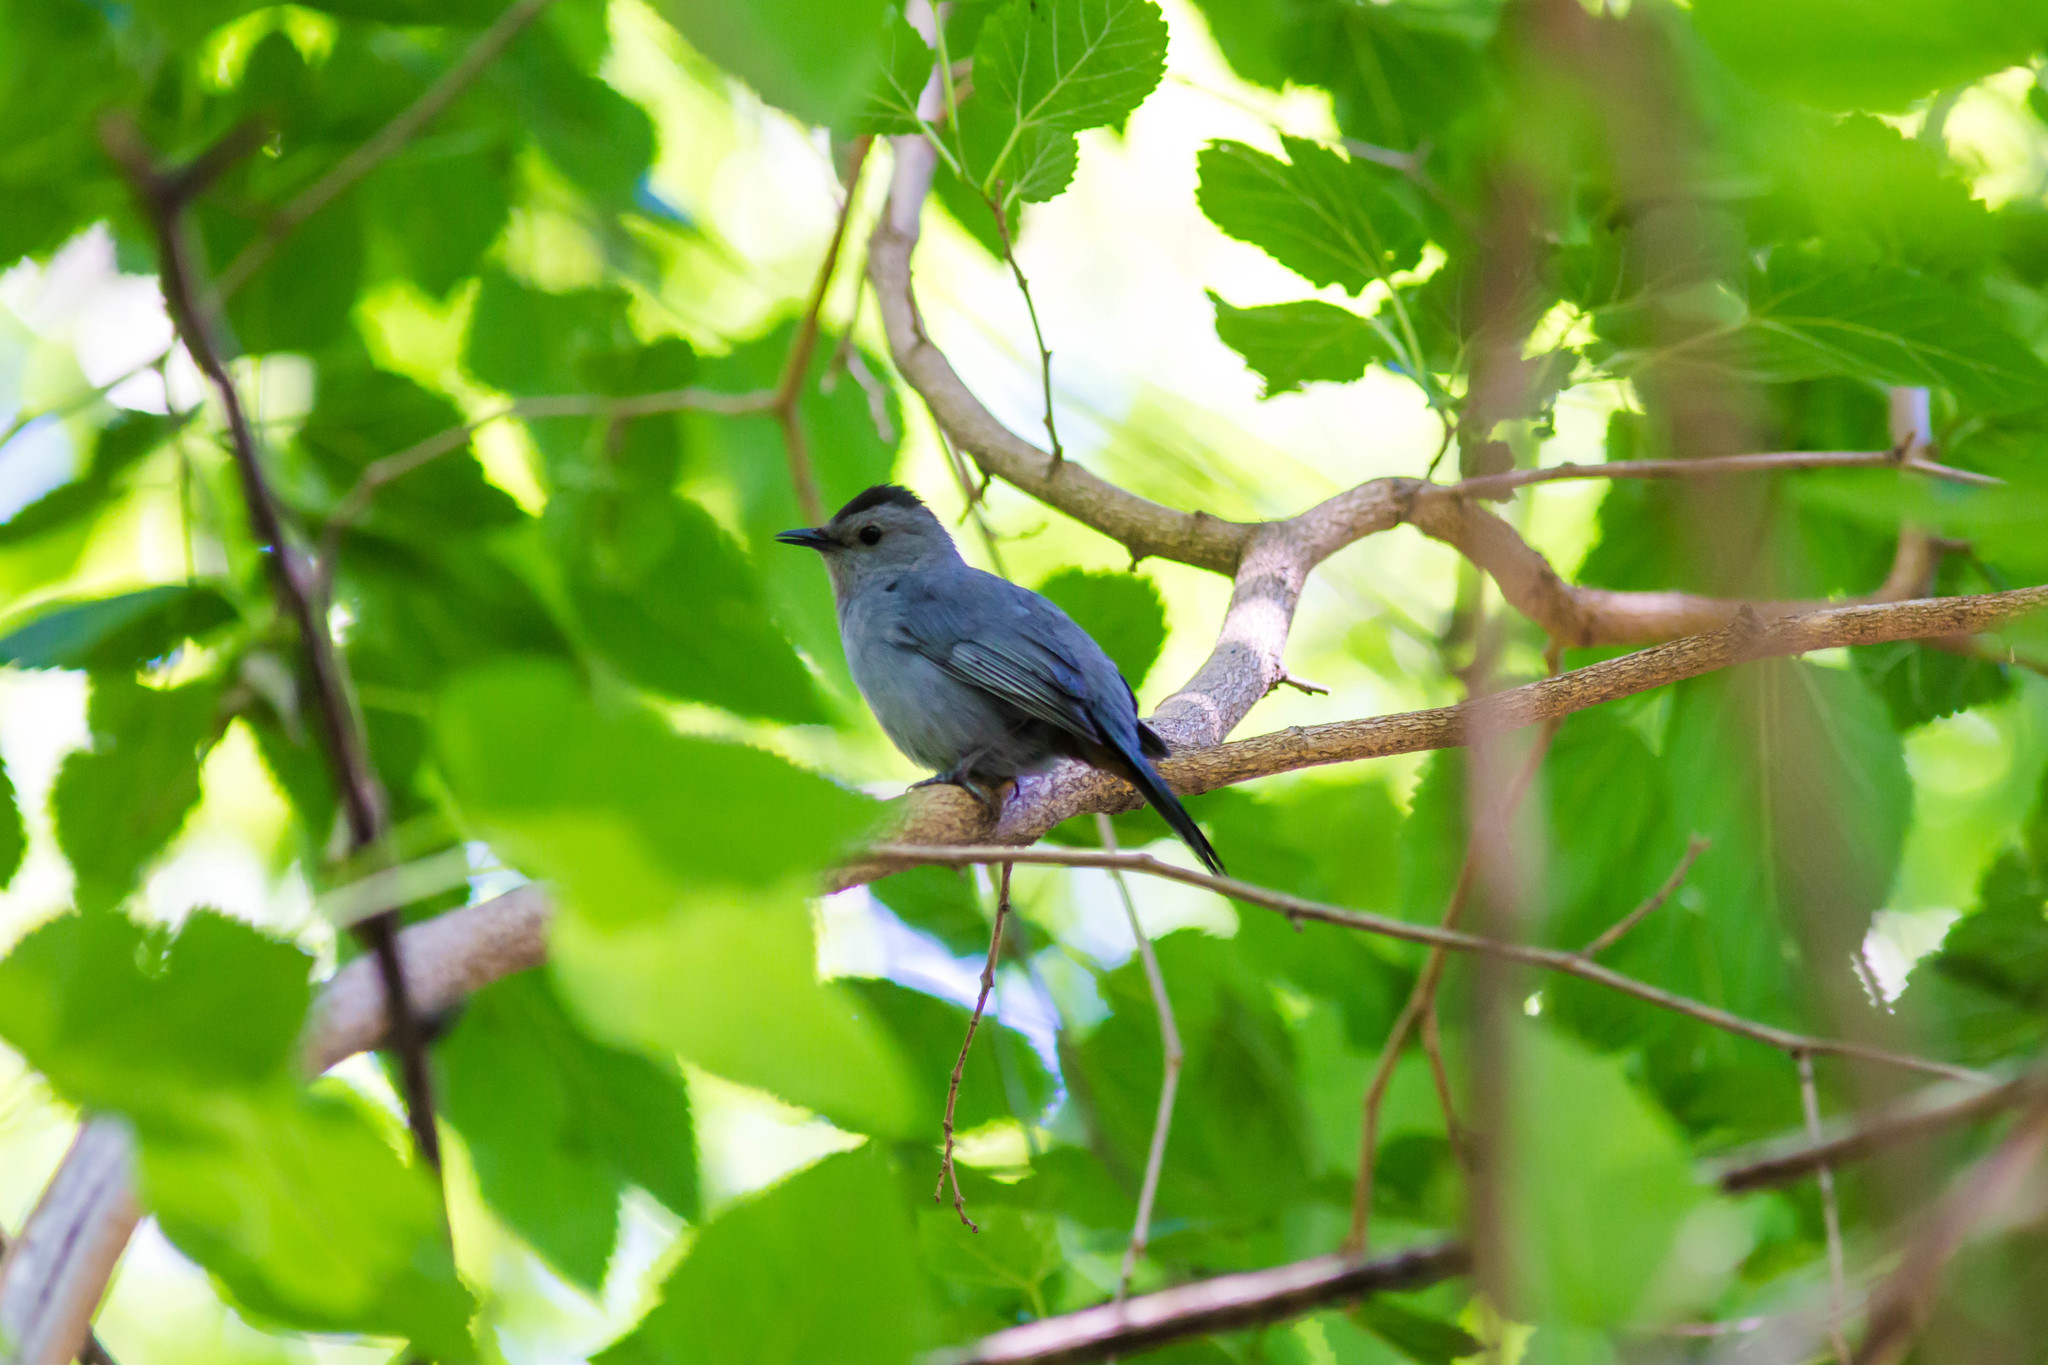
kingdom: Animalia
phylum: Chordata
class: Aves
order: Passeriformes
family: Mimidae
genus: Dumetella
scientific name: Dumetella carolinensis
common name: Gray catbird
